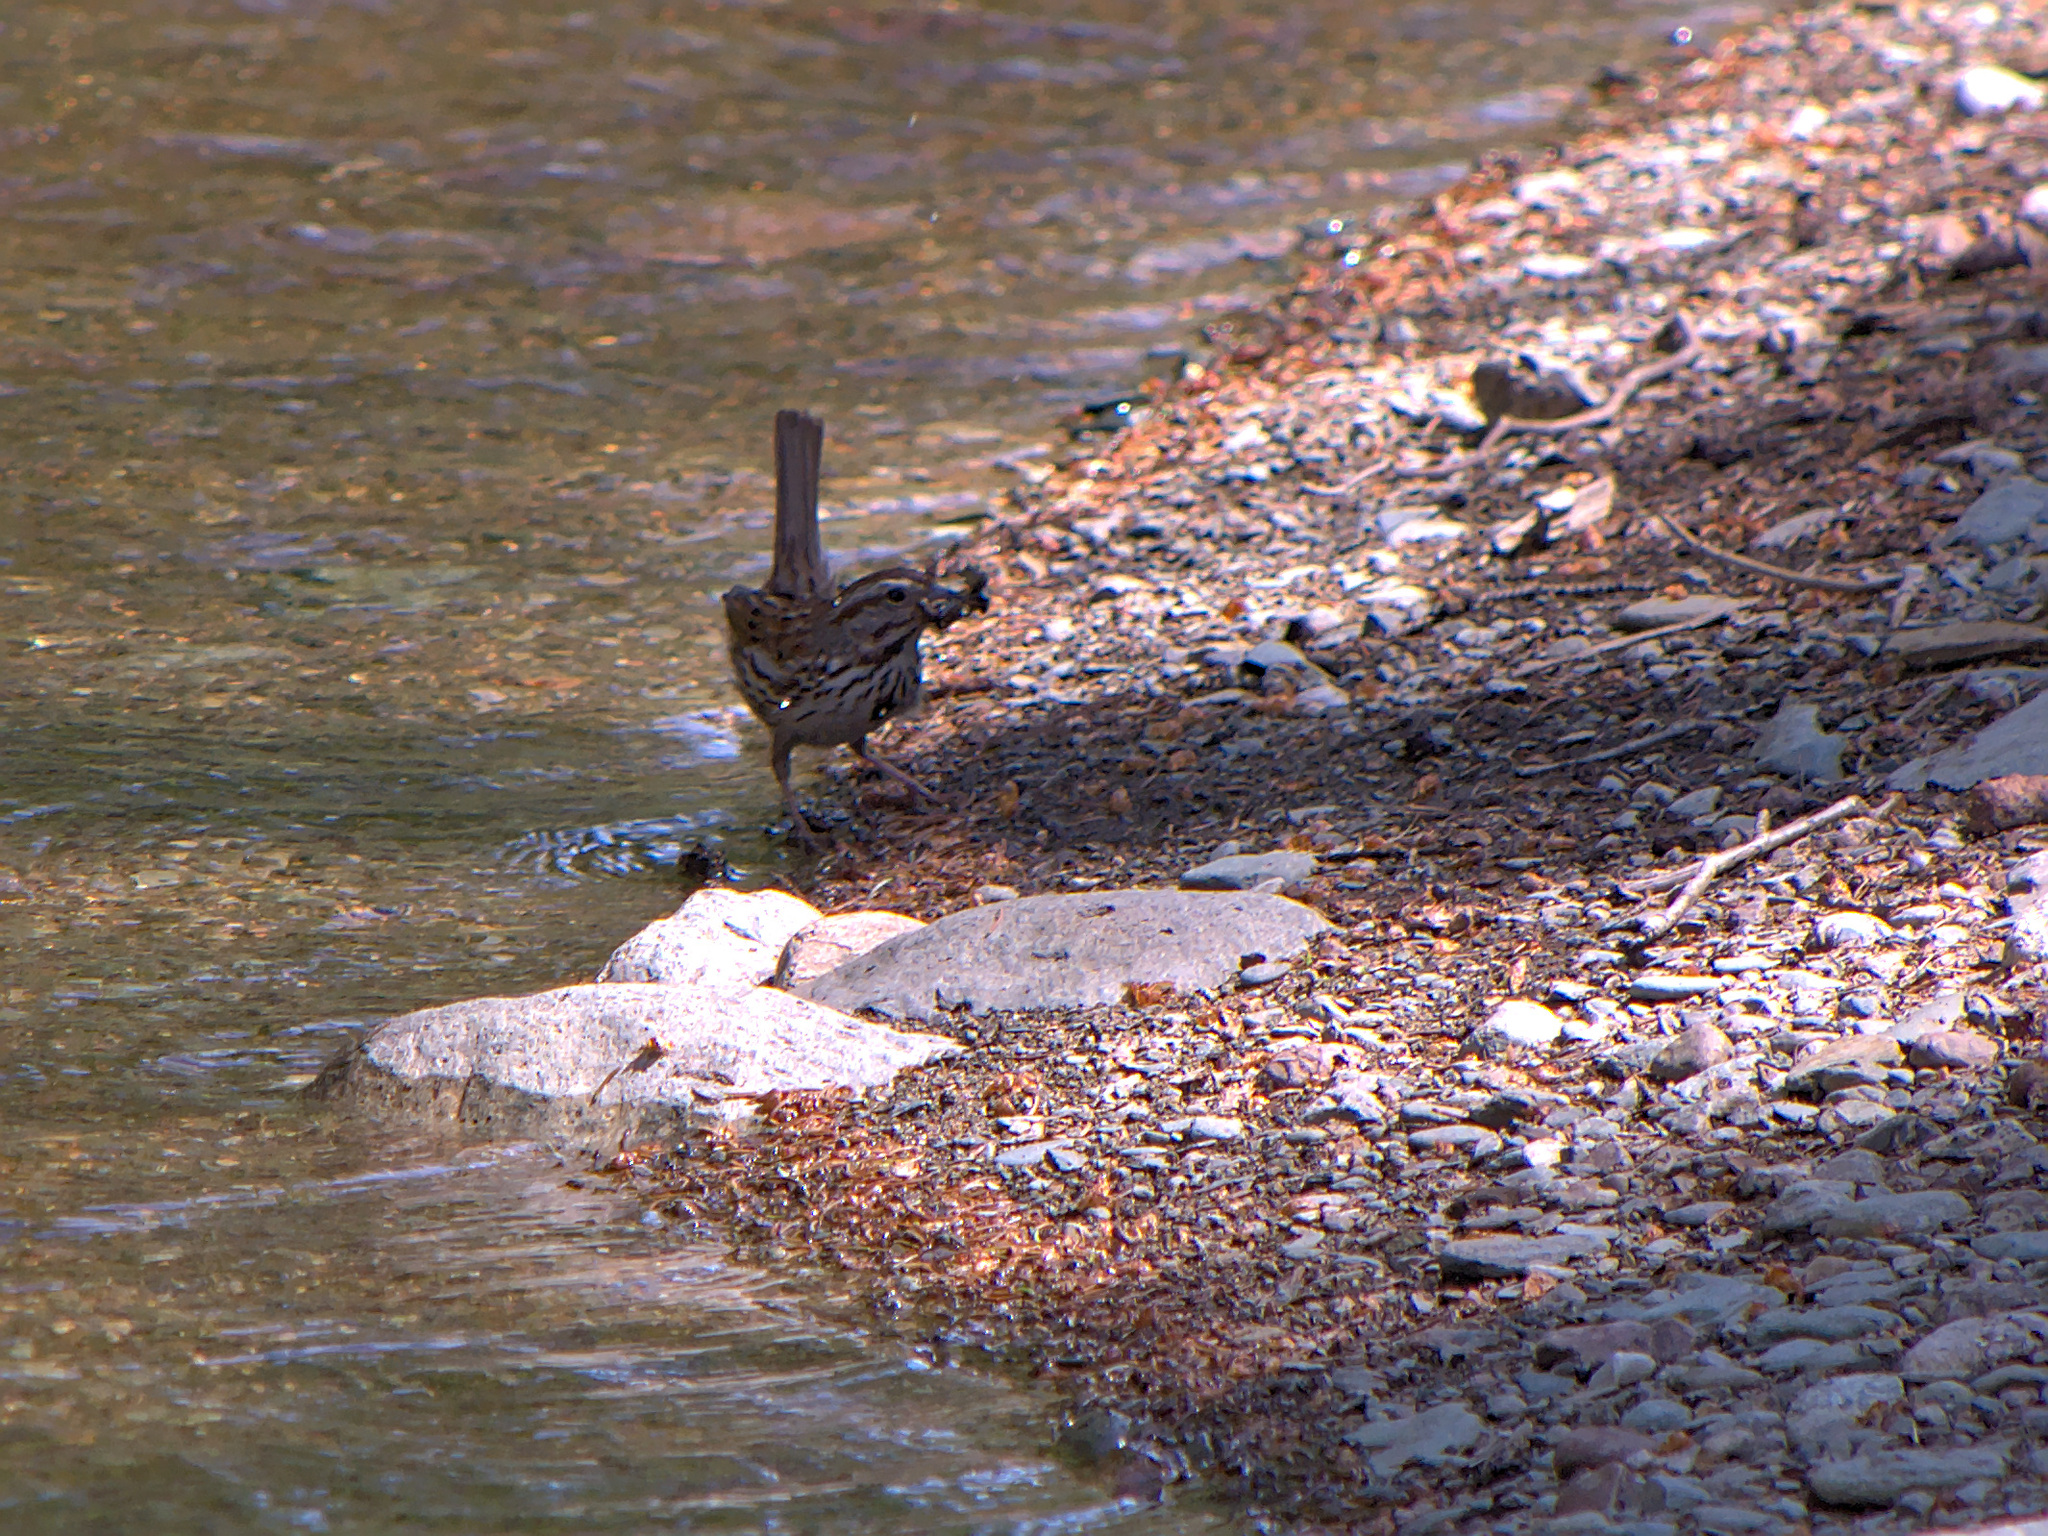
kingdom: Animalia
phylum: Chordata
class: Aves
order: Passeriformes
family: Passerellidae
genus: Melospiza
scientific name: Melospiza melodia
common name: Song sparrow
